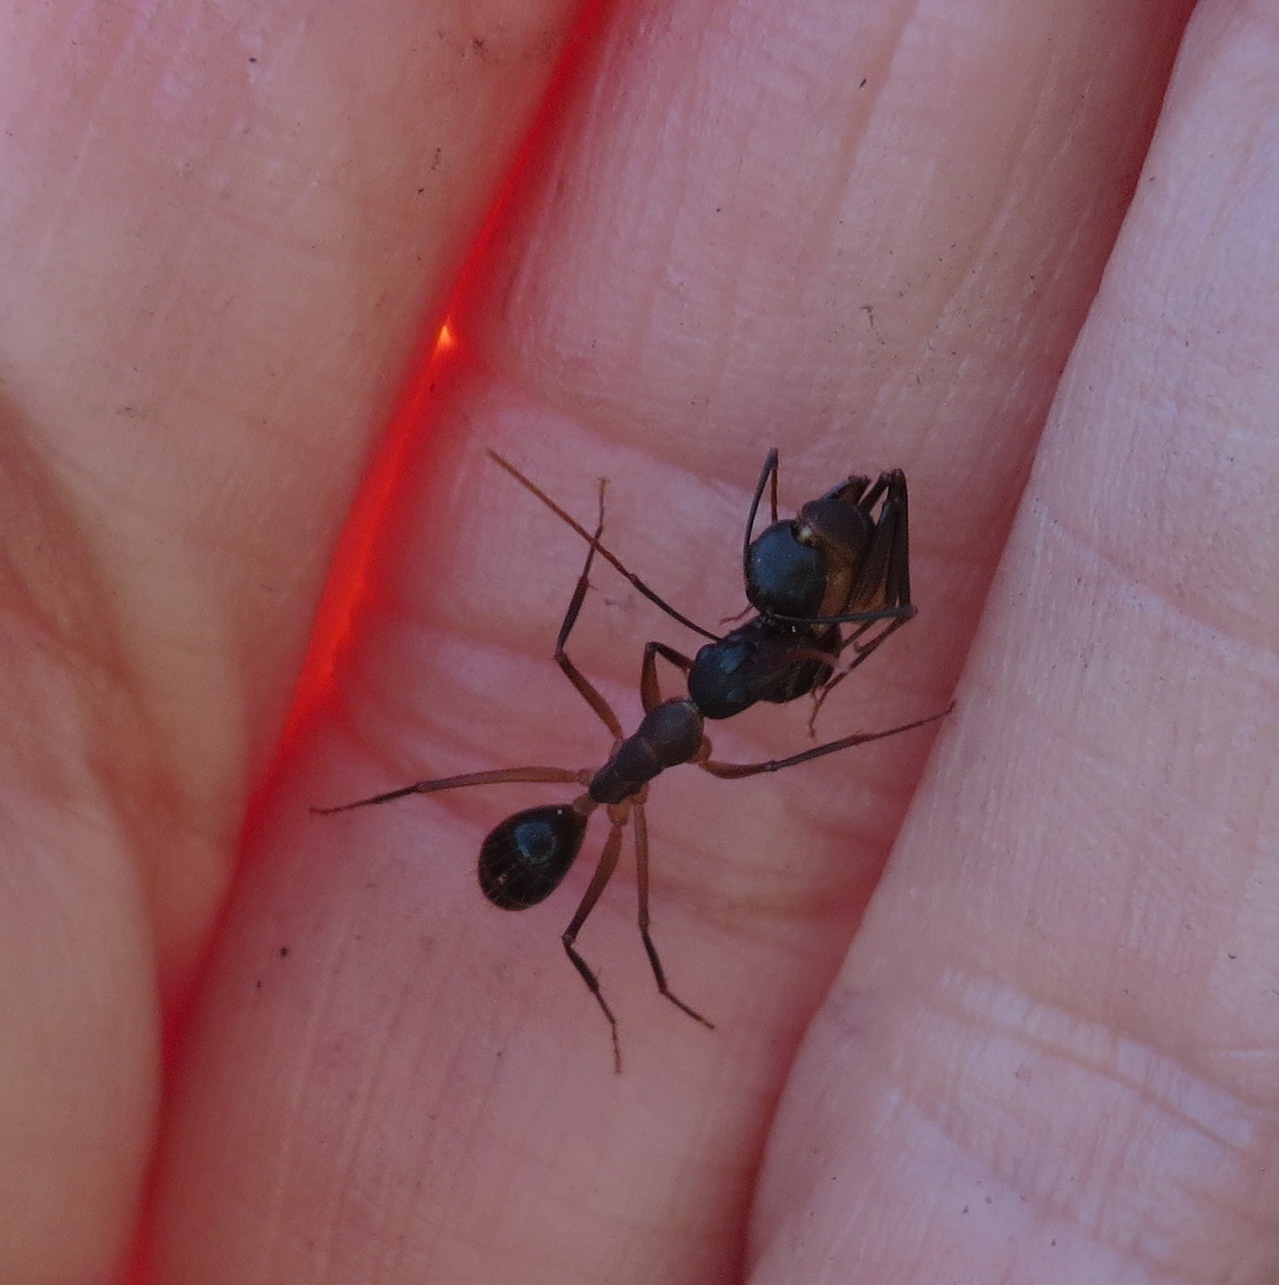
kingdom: Animalia
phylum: Arthropoda
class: Insecta
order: Hymenoptera
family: Formicidae
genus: Camponotus
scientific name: Camponotus baynei
